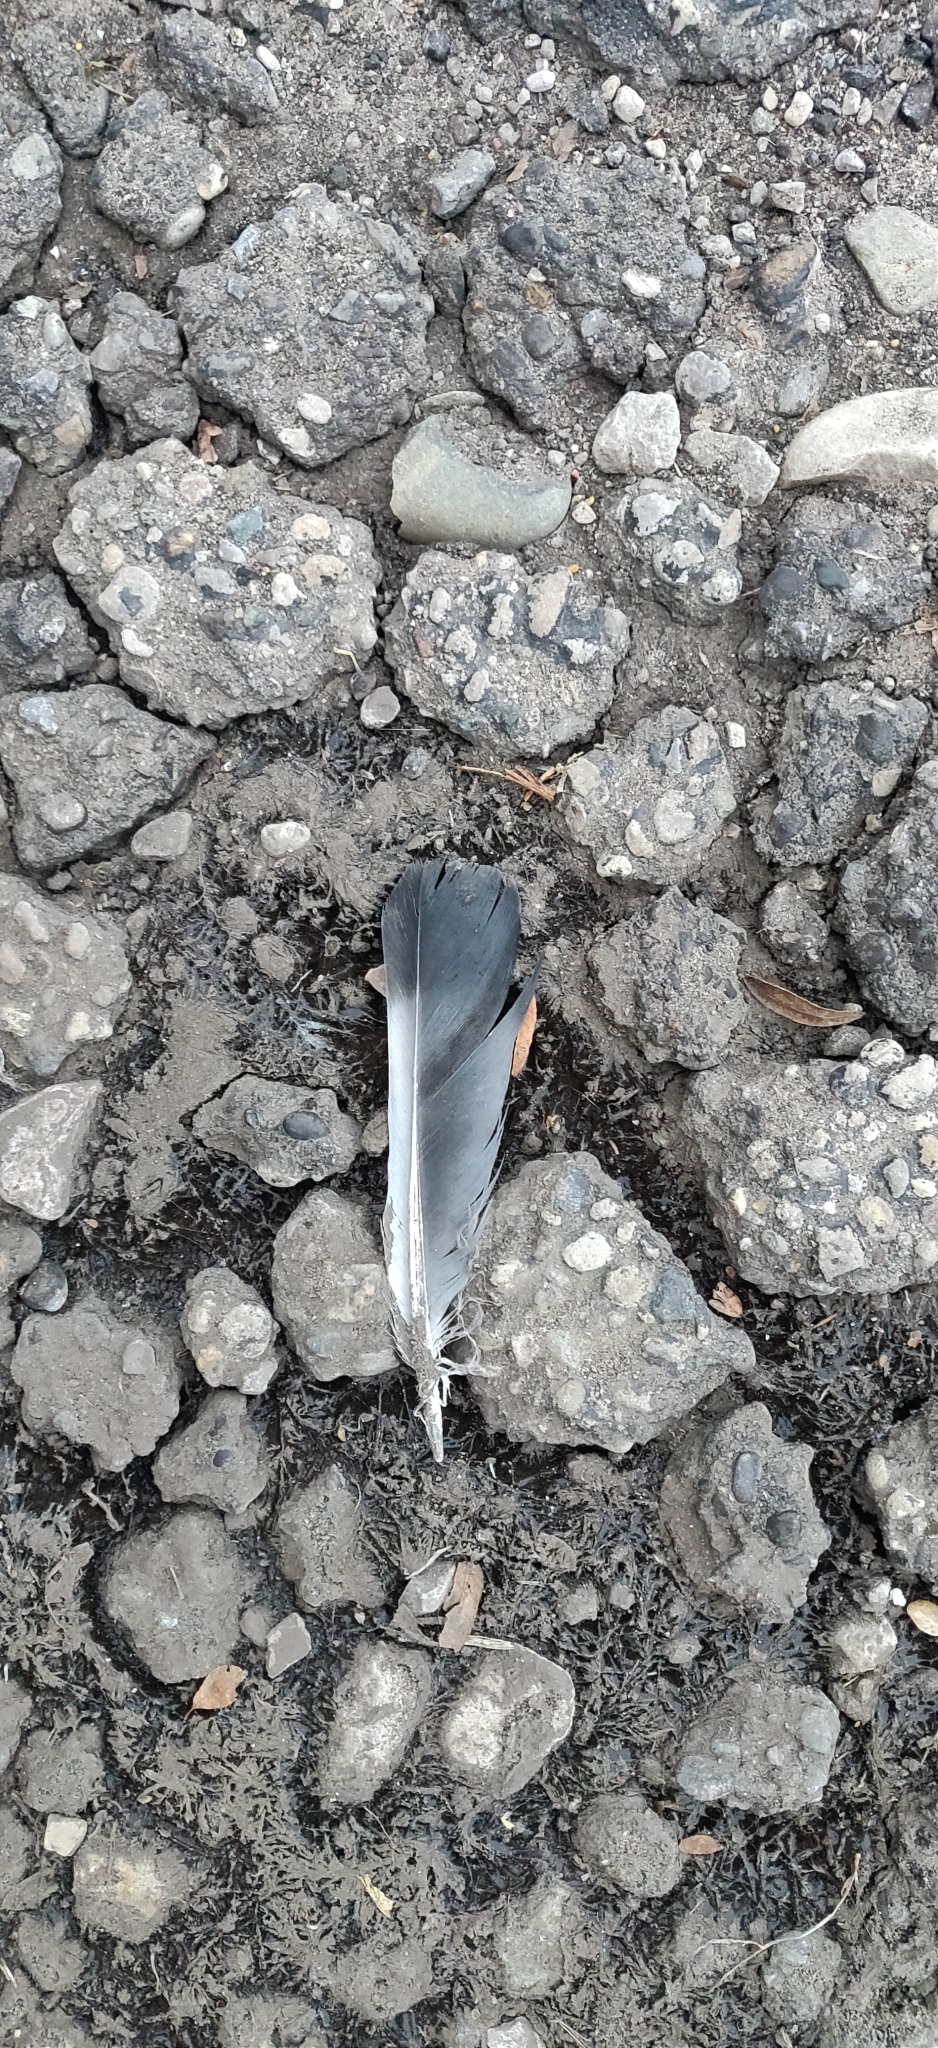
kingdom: Animalia
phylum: Chordata
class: Aves
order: Columbiformes
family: Columbidae
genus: Columba
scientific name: Columba livia
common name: Rock pigeon
